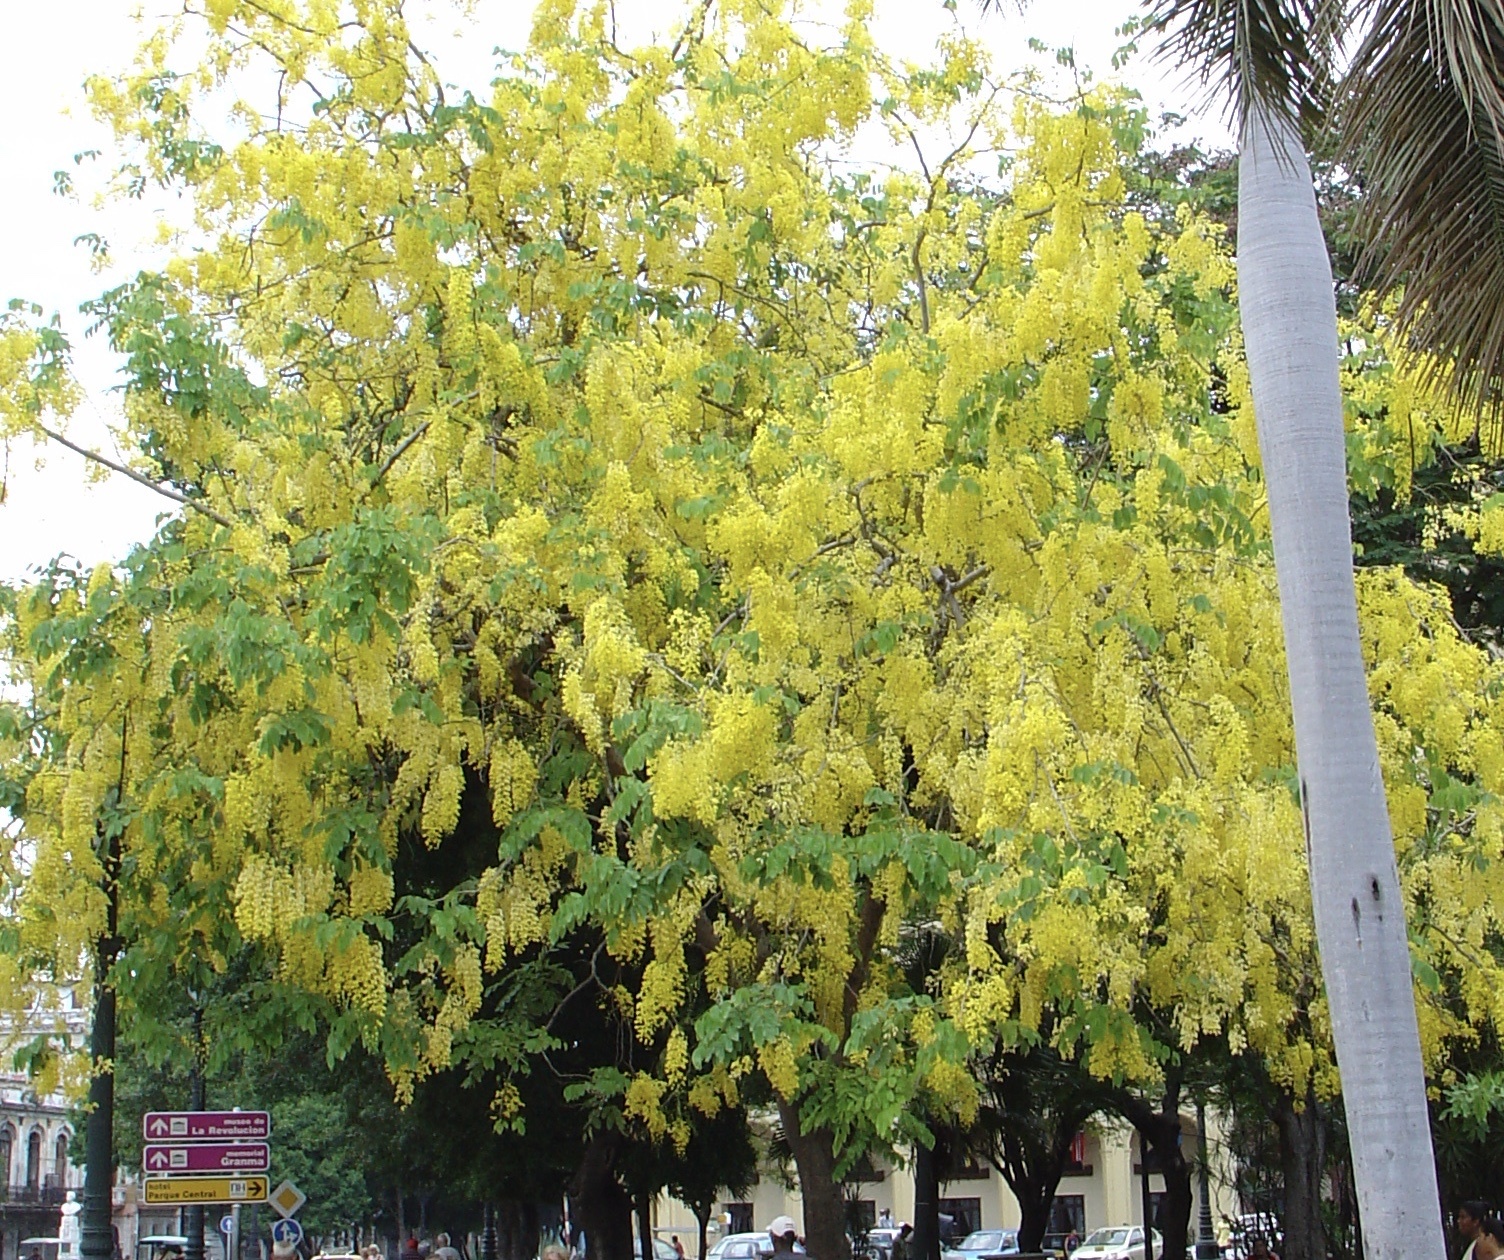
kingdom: Plantae
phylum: Tracheophyta
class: Magnoliopsida
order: Fabales
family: Fabaceae
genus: Cassia
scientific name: Cassia fistula
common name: Golden shower
